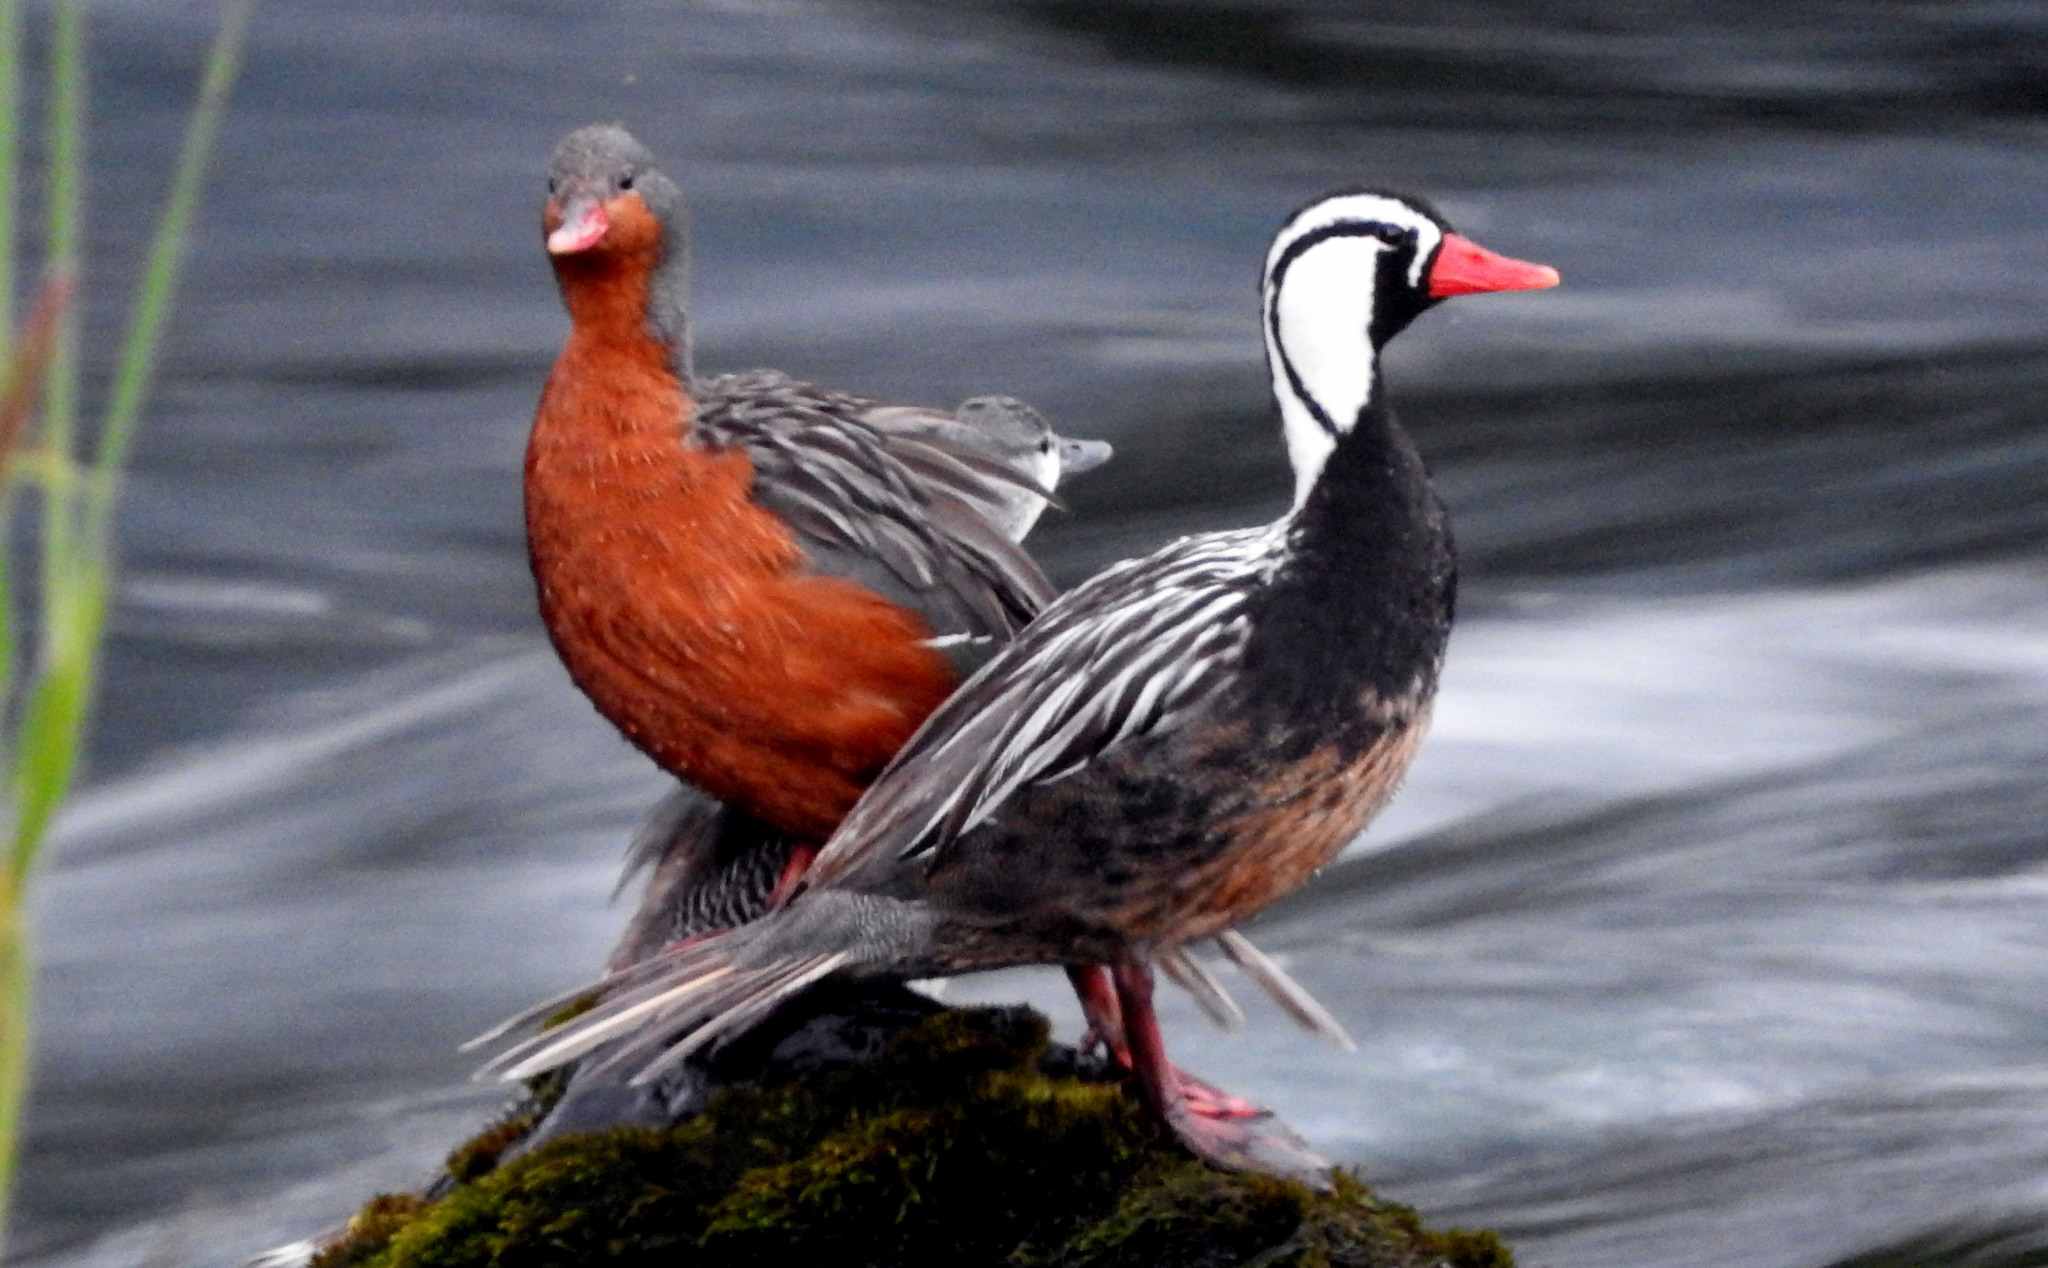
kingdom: Animalia
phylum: Chordata
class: Aves
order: Anseriformes
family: Anatidae
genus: Merganetta
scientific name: Merganetta armata
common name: Torrent duck
